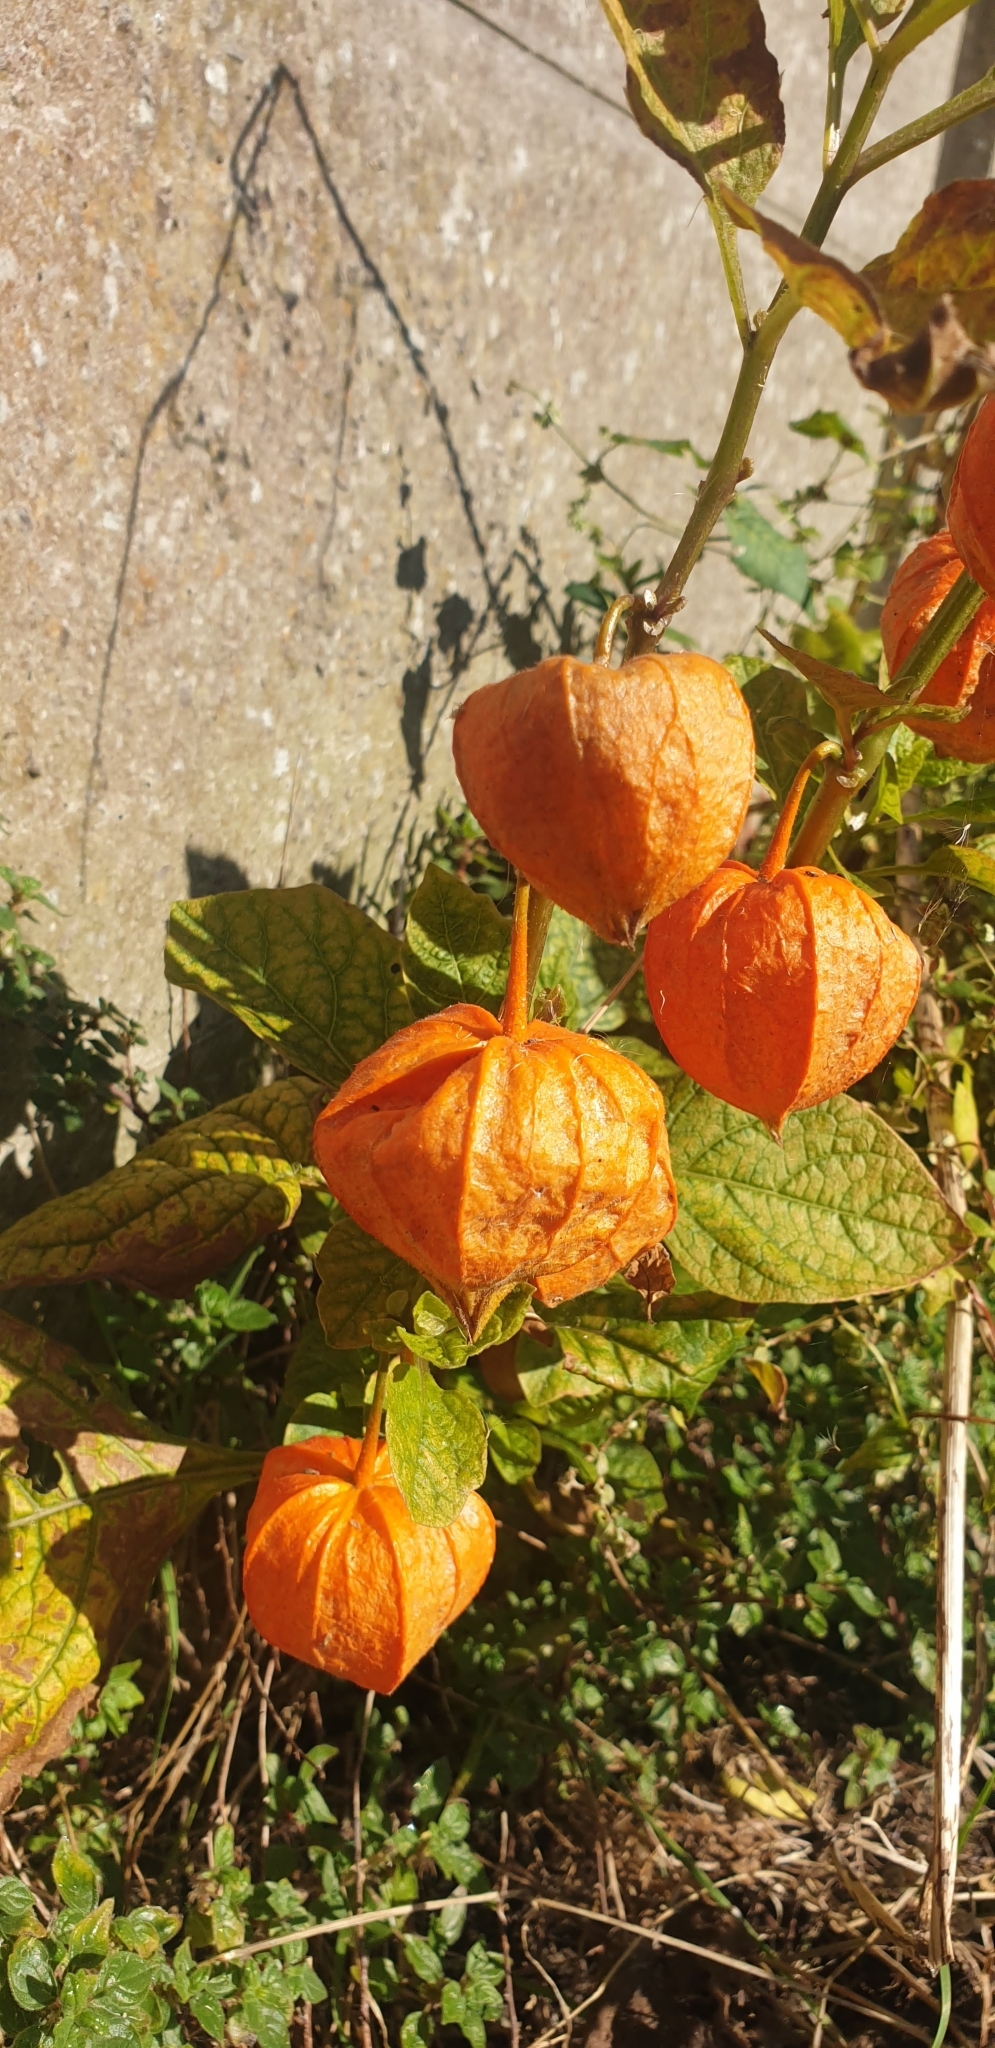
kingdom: Plantae
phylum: Tracheophyta
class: Magnoliopsida
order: Solanales
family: Solanaceae
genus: Alkekengi
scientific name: Alkekengi officinarum
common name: Japanese-lantern
